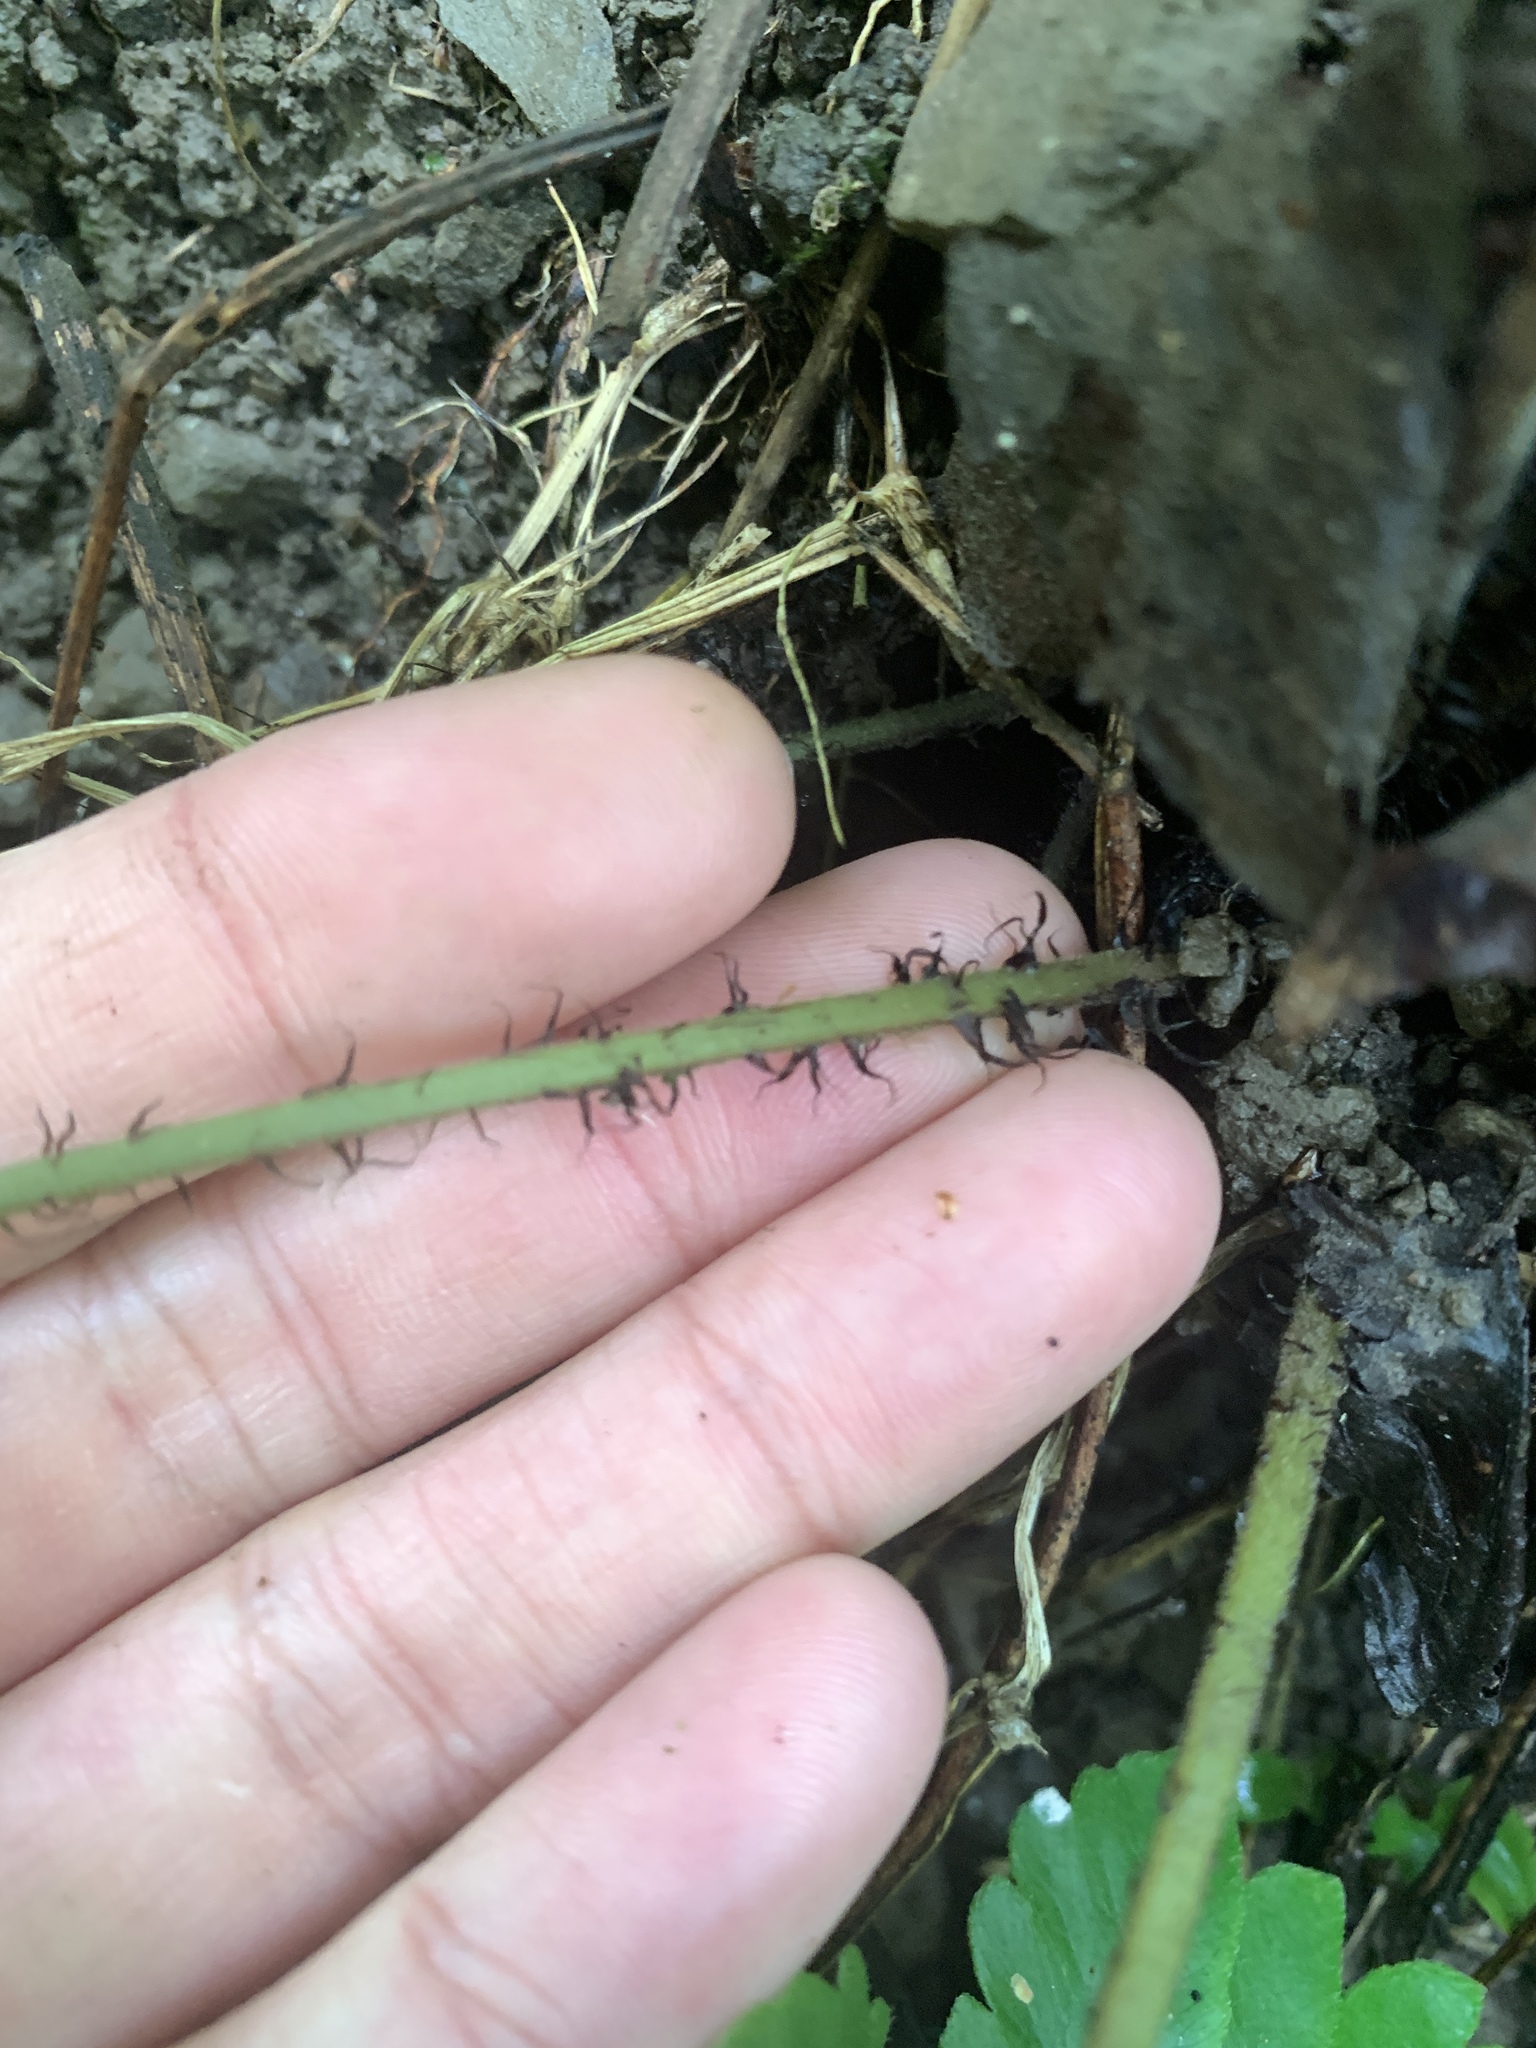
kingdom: Plantae
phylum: Tracheophyta
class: Polypodiopsida
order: Polypodiales
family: Tectariaceae
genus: Tectaria
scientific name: Tectaria fuscipes
